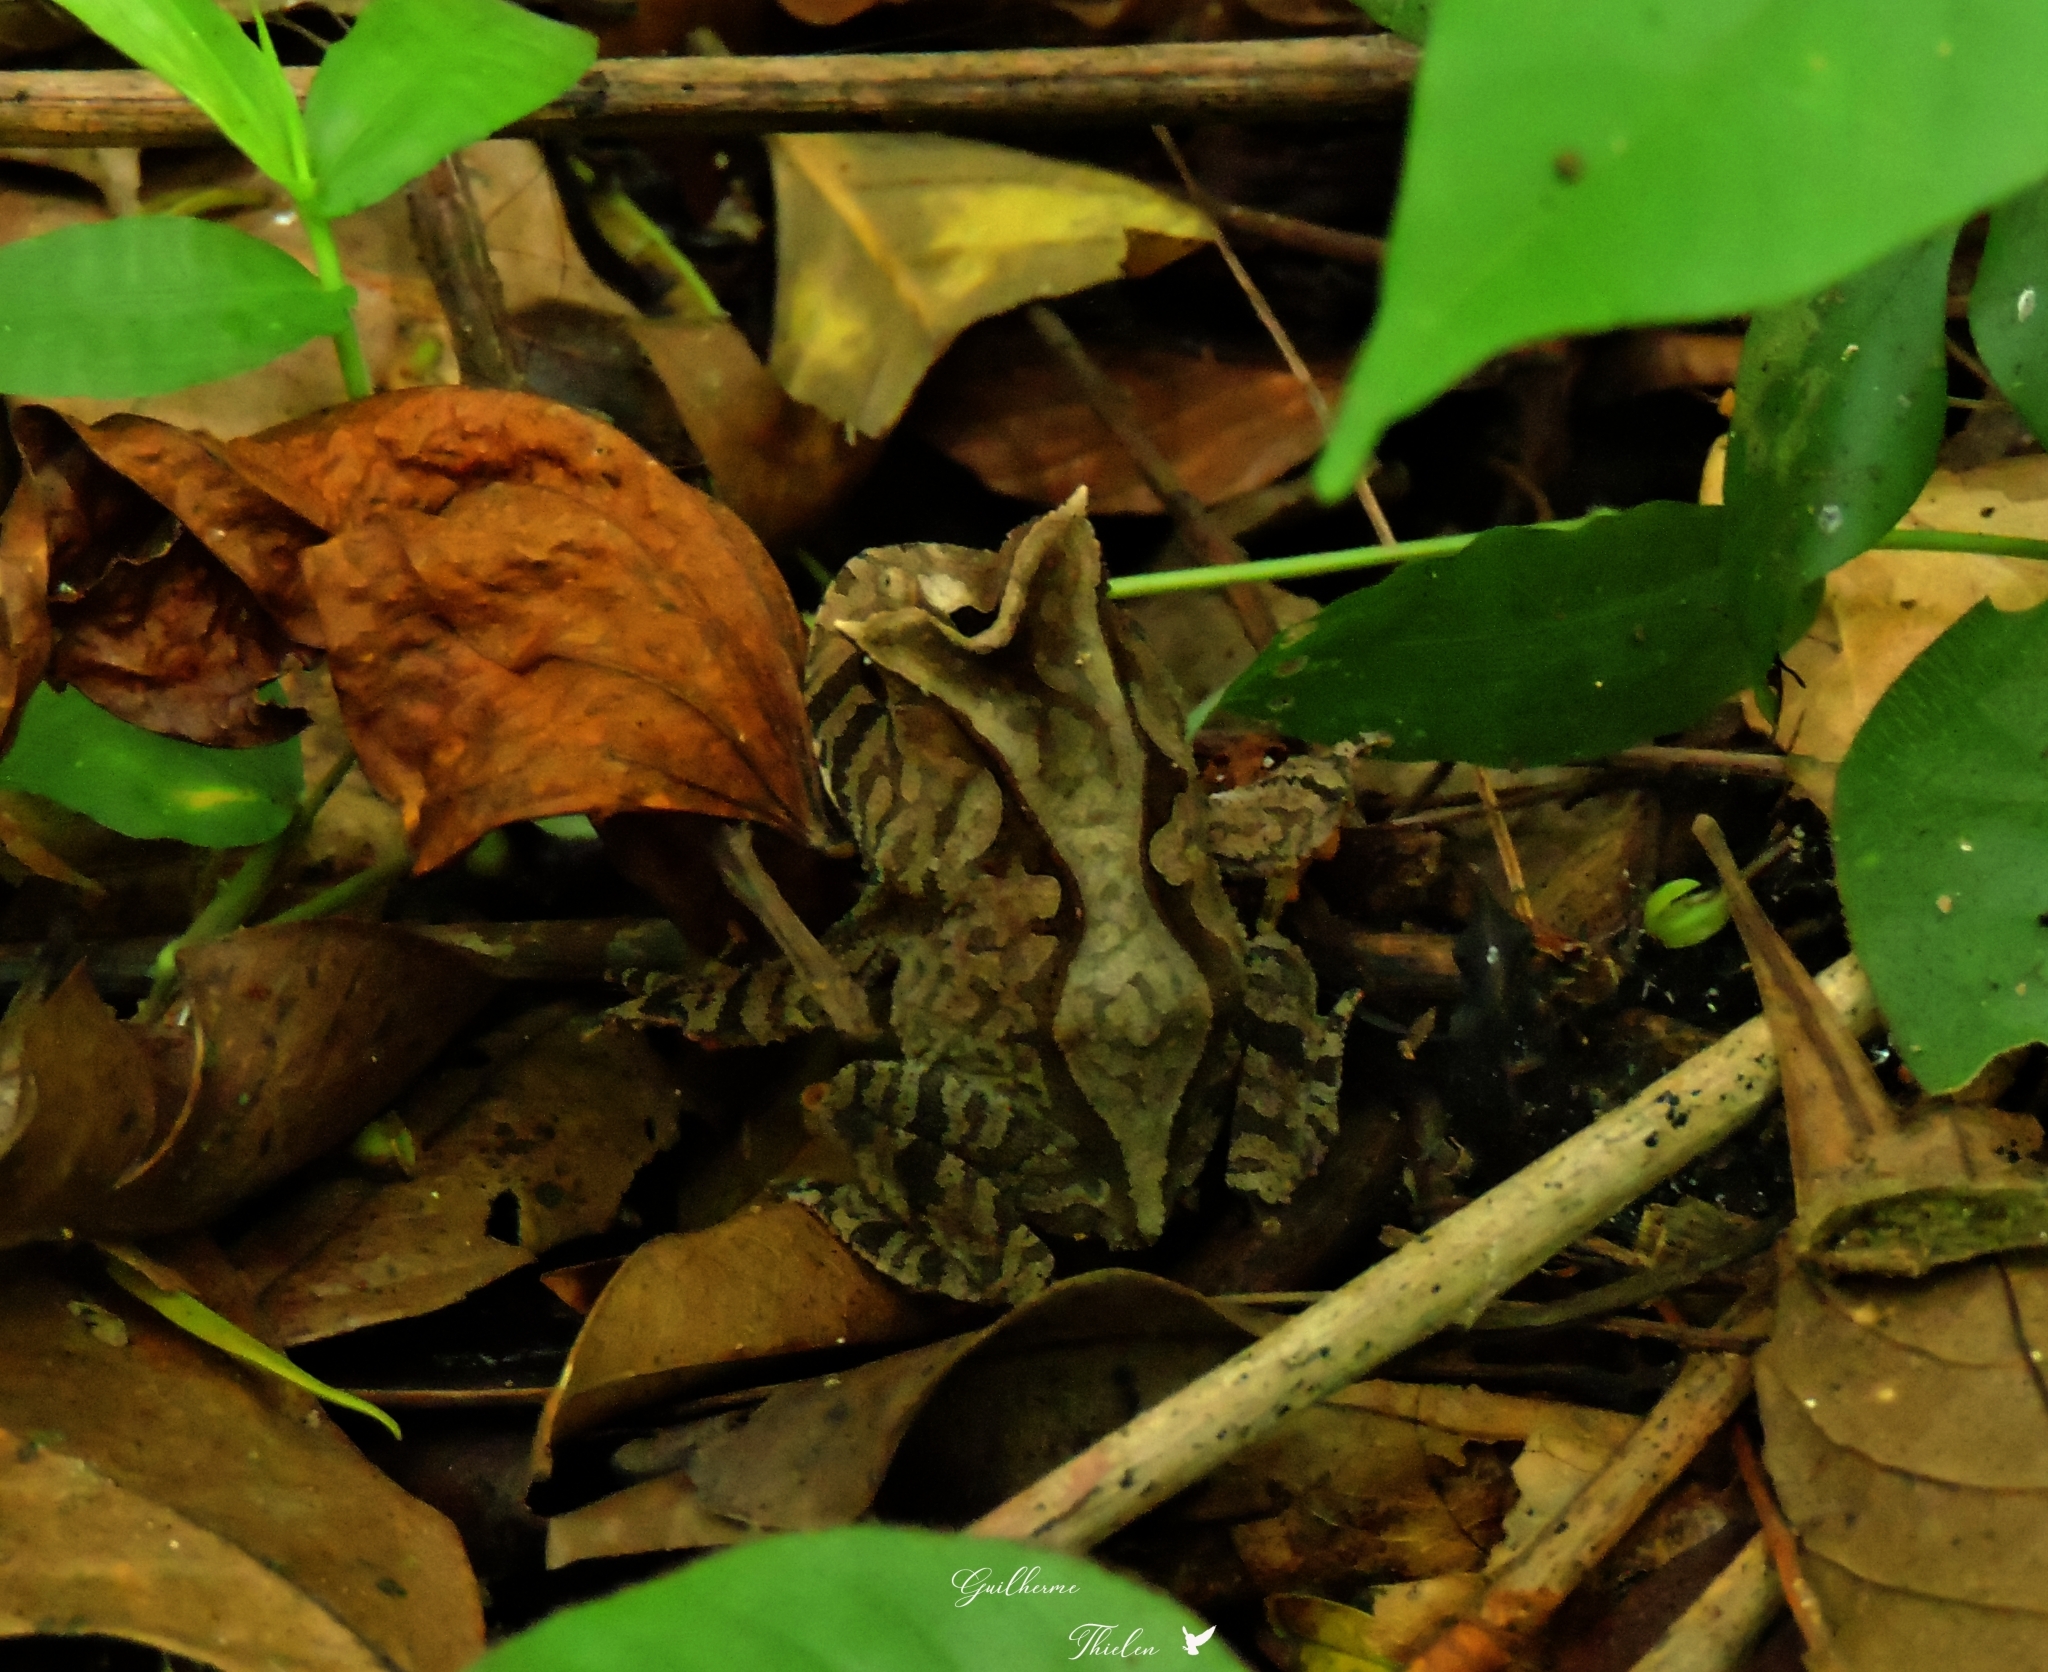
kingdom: Animalia
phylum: Chordata
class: Amphibia
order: Anura
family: Odontophrynidae
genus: Proceratophrys
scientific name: Proceratophrys boiei
